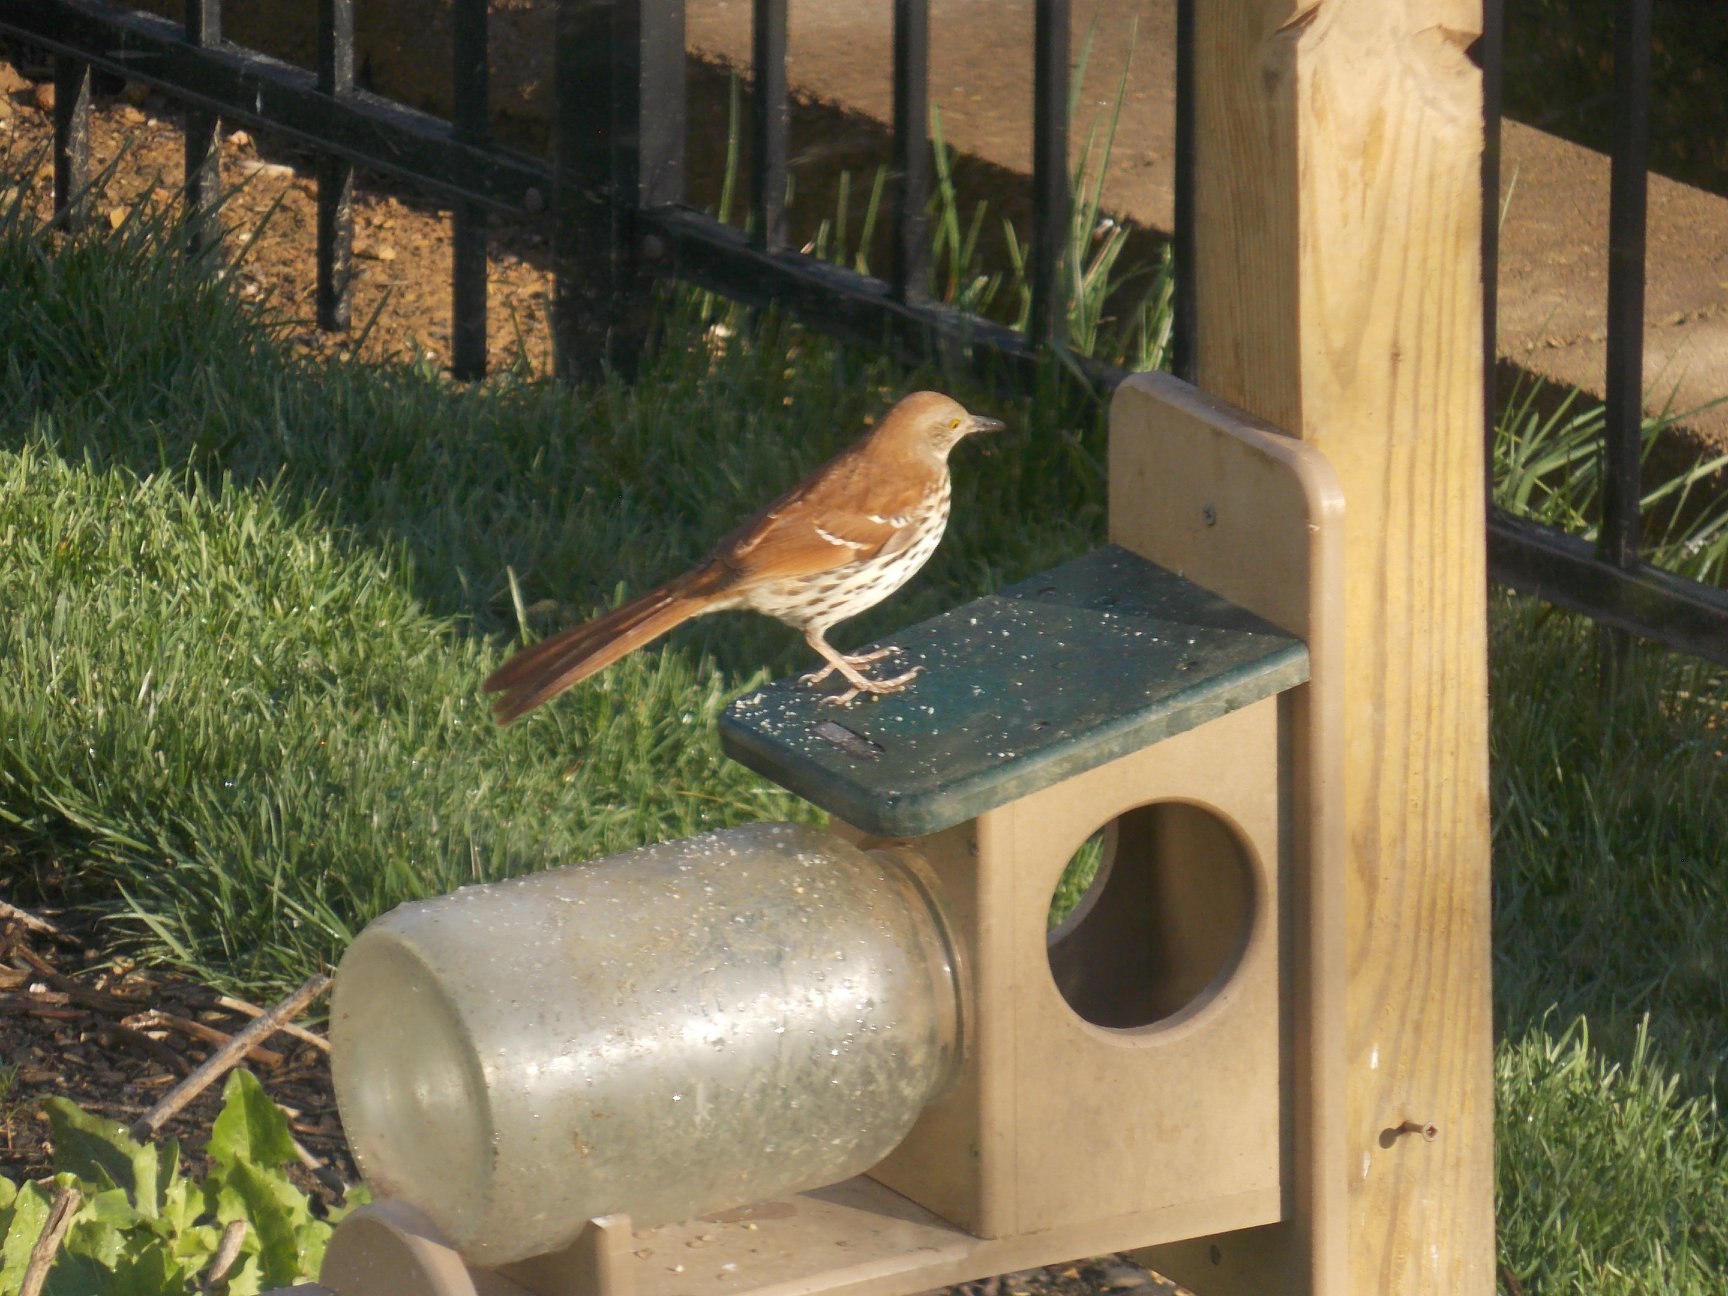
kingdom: Animalia
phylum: Chordata
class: Aves
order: Passeriformes
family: Mimidae
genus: Toxostoma
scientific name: Toxostoma rufum
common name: Brown thrasher
